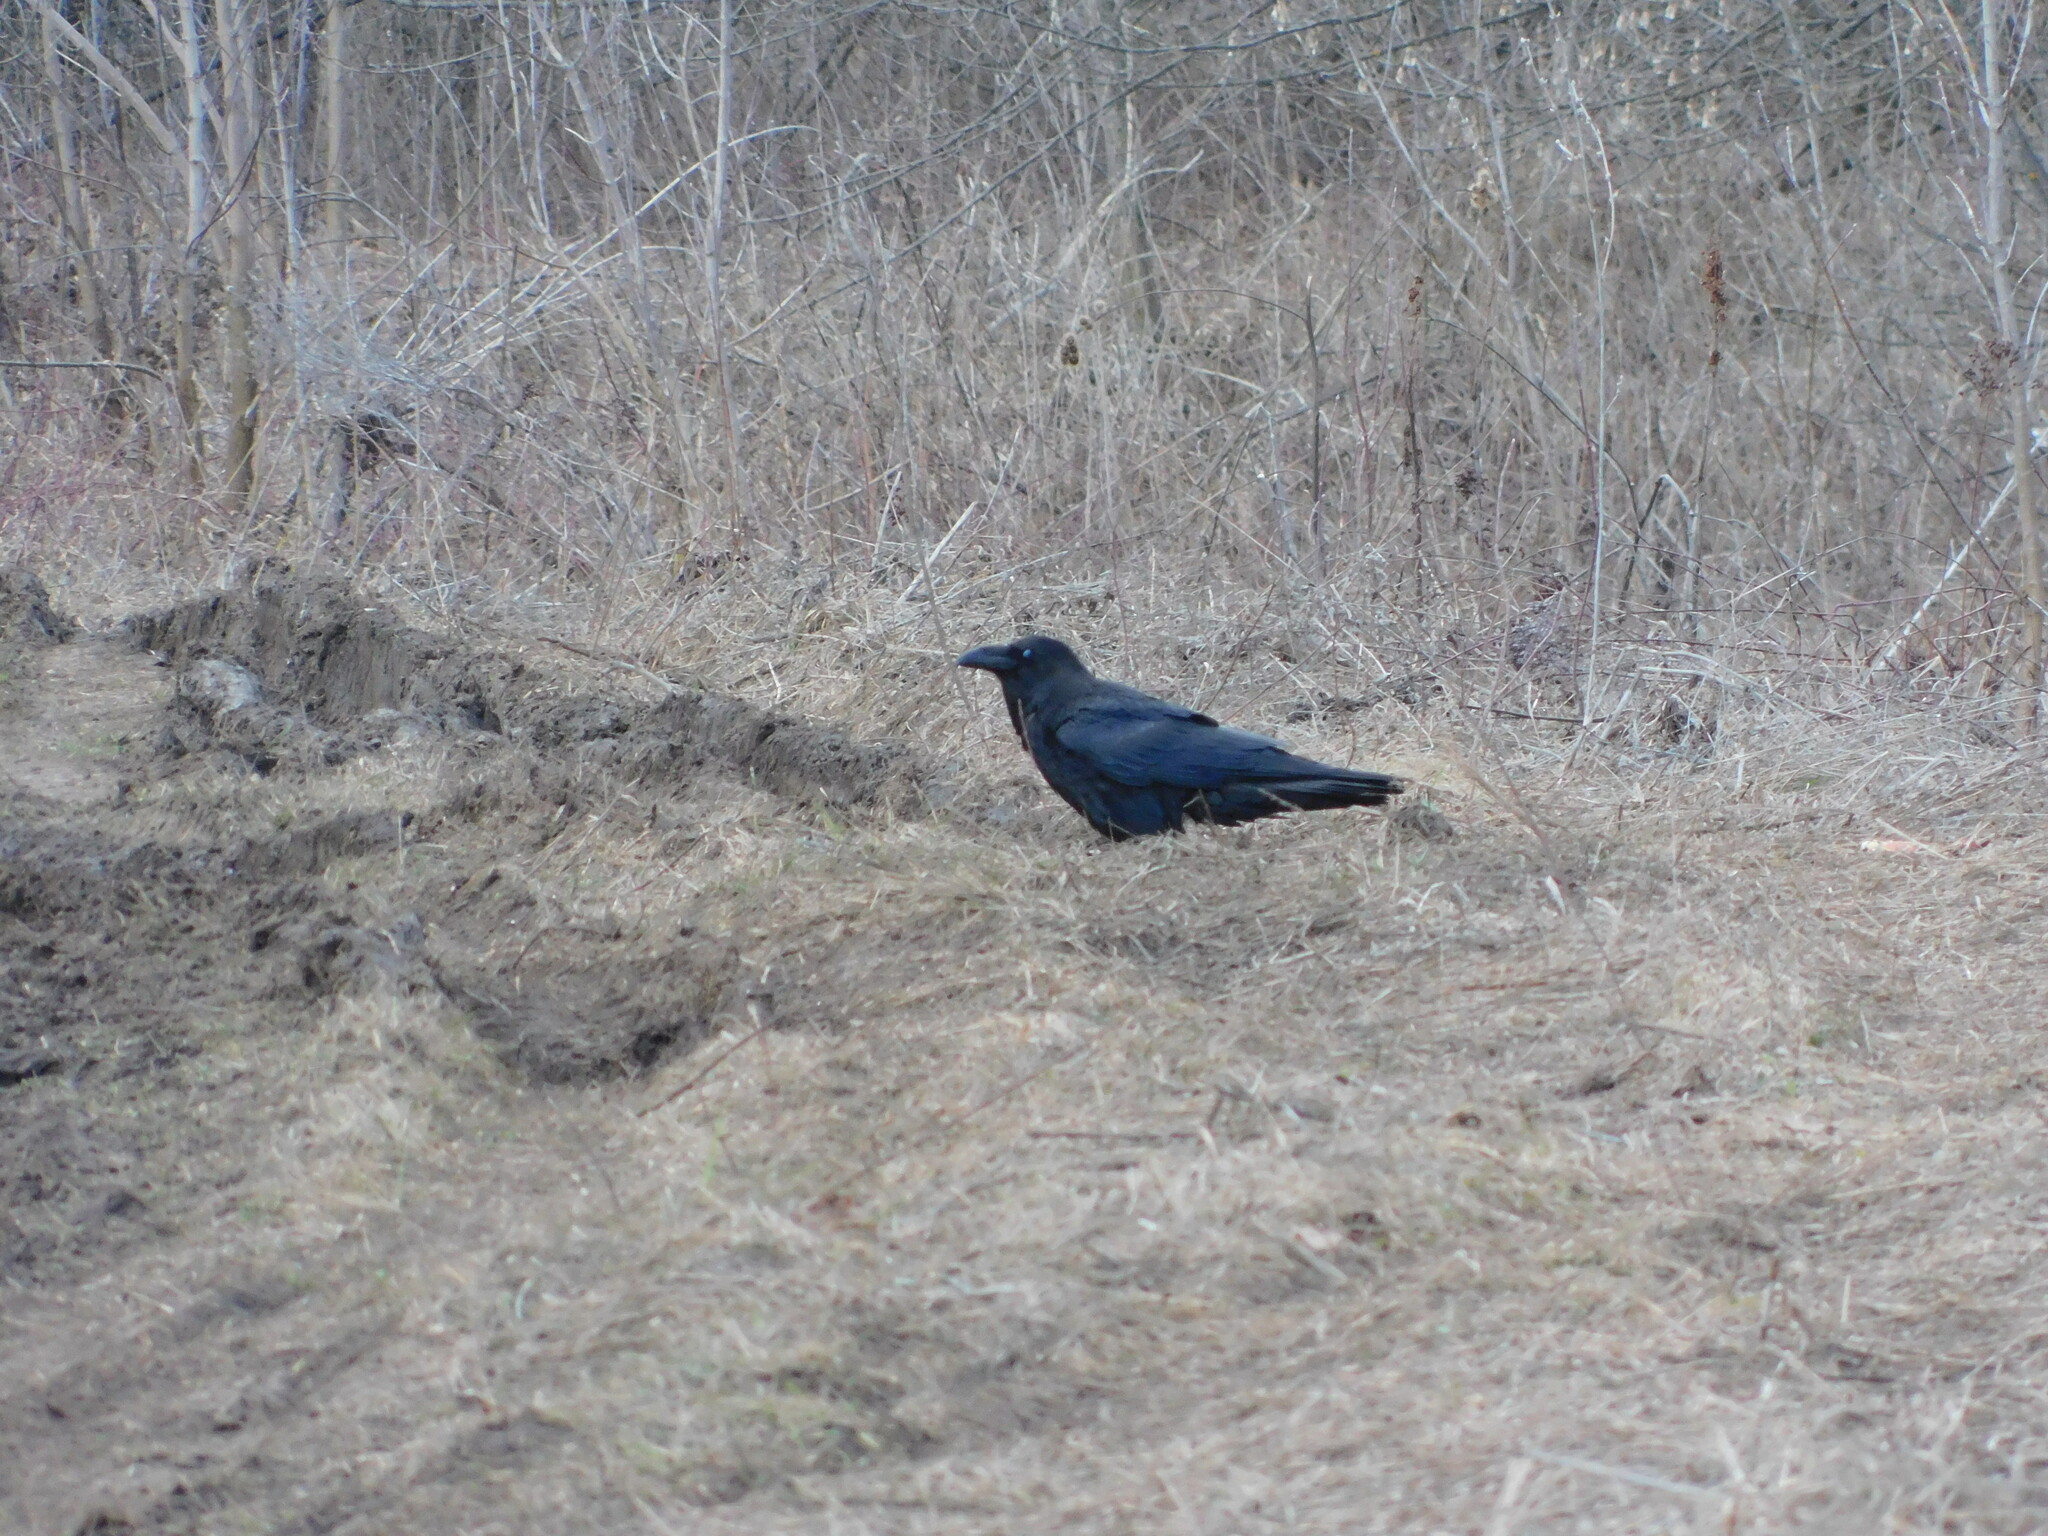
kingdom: Animalia
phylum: Chordata
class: Aves
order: Passeriformes
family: Corvidae
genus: Corvus
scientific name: Corvus corax
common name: Common raven
